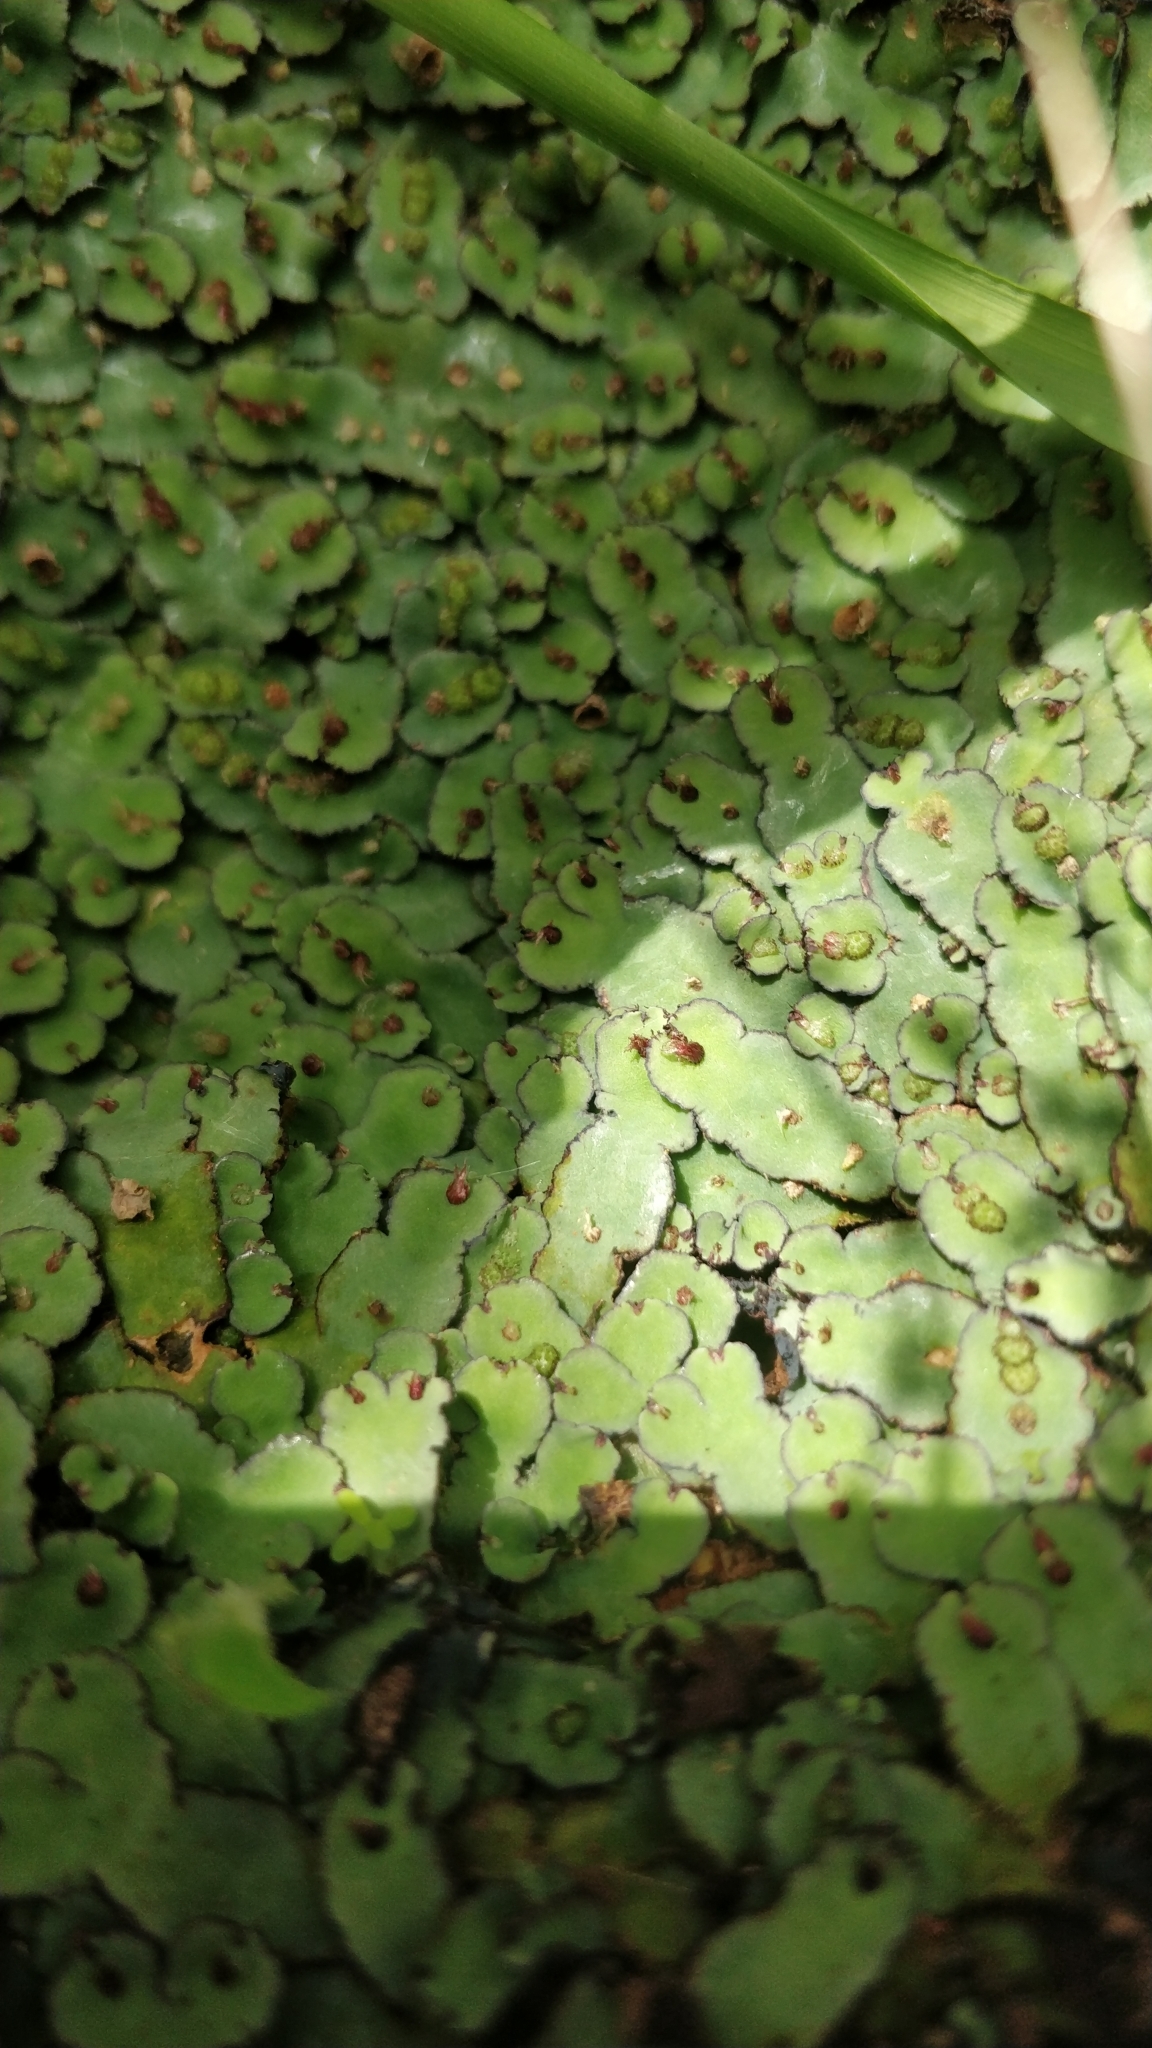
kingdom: Plantae
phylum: Marchantiophyta
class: Marchantiopsida
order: Marchantiales
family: Aytoniaceae
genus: Plagiochasma
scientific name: Plagiochasma rupestre
